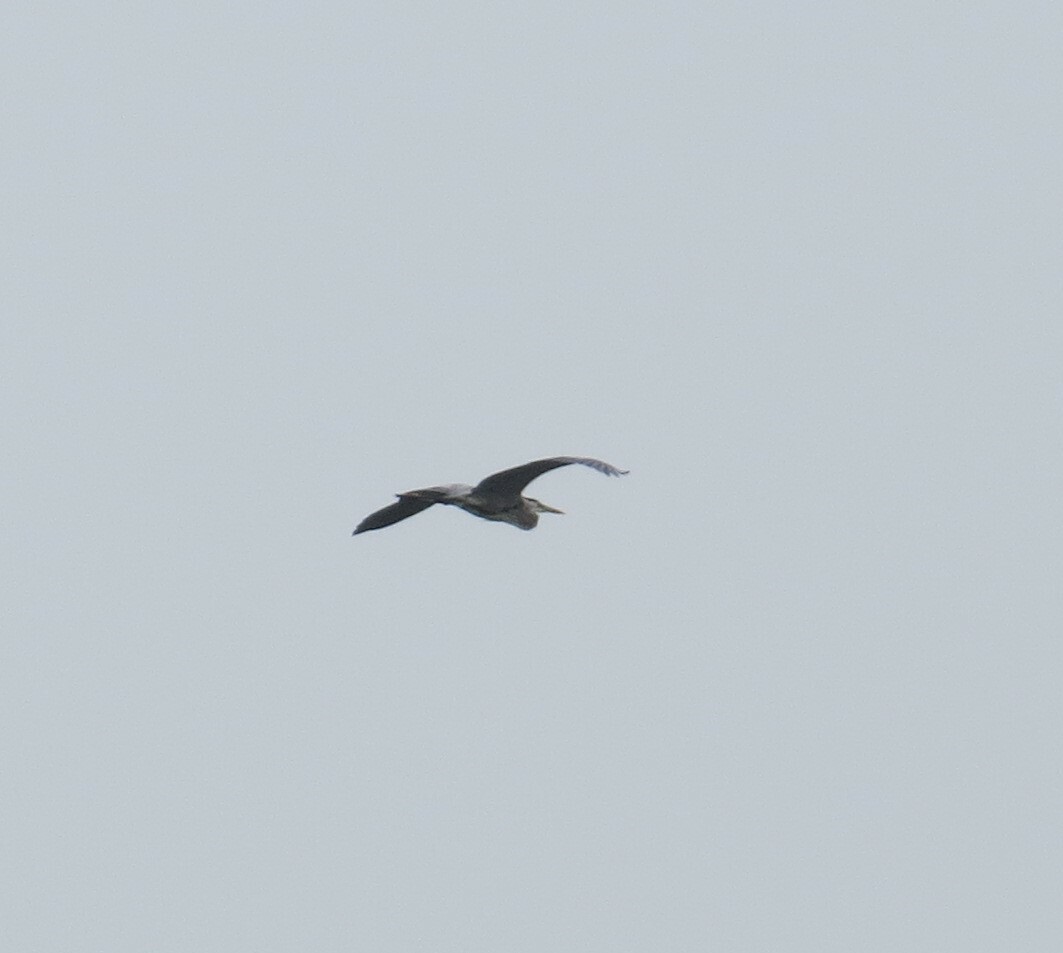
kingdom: Animalia
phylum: Chordata
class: Aves
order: Pelecaniformes
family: Ardeidae
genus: Ardea
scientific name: Ardea herodias
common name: Great blue heron
